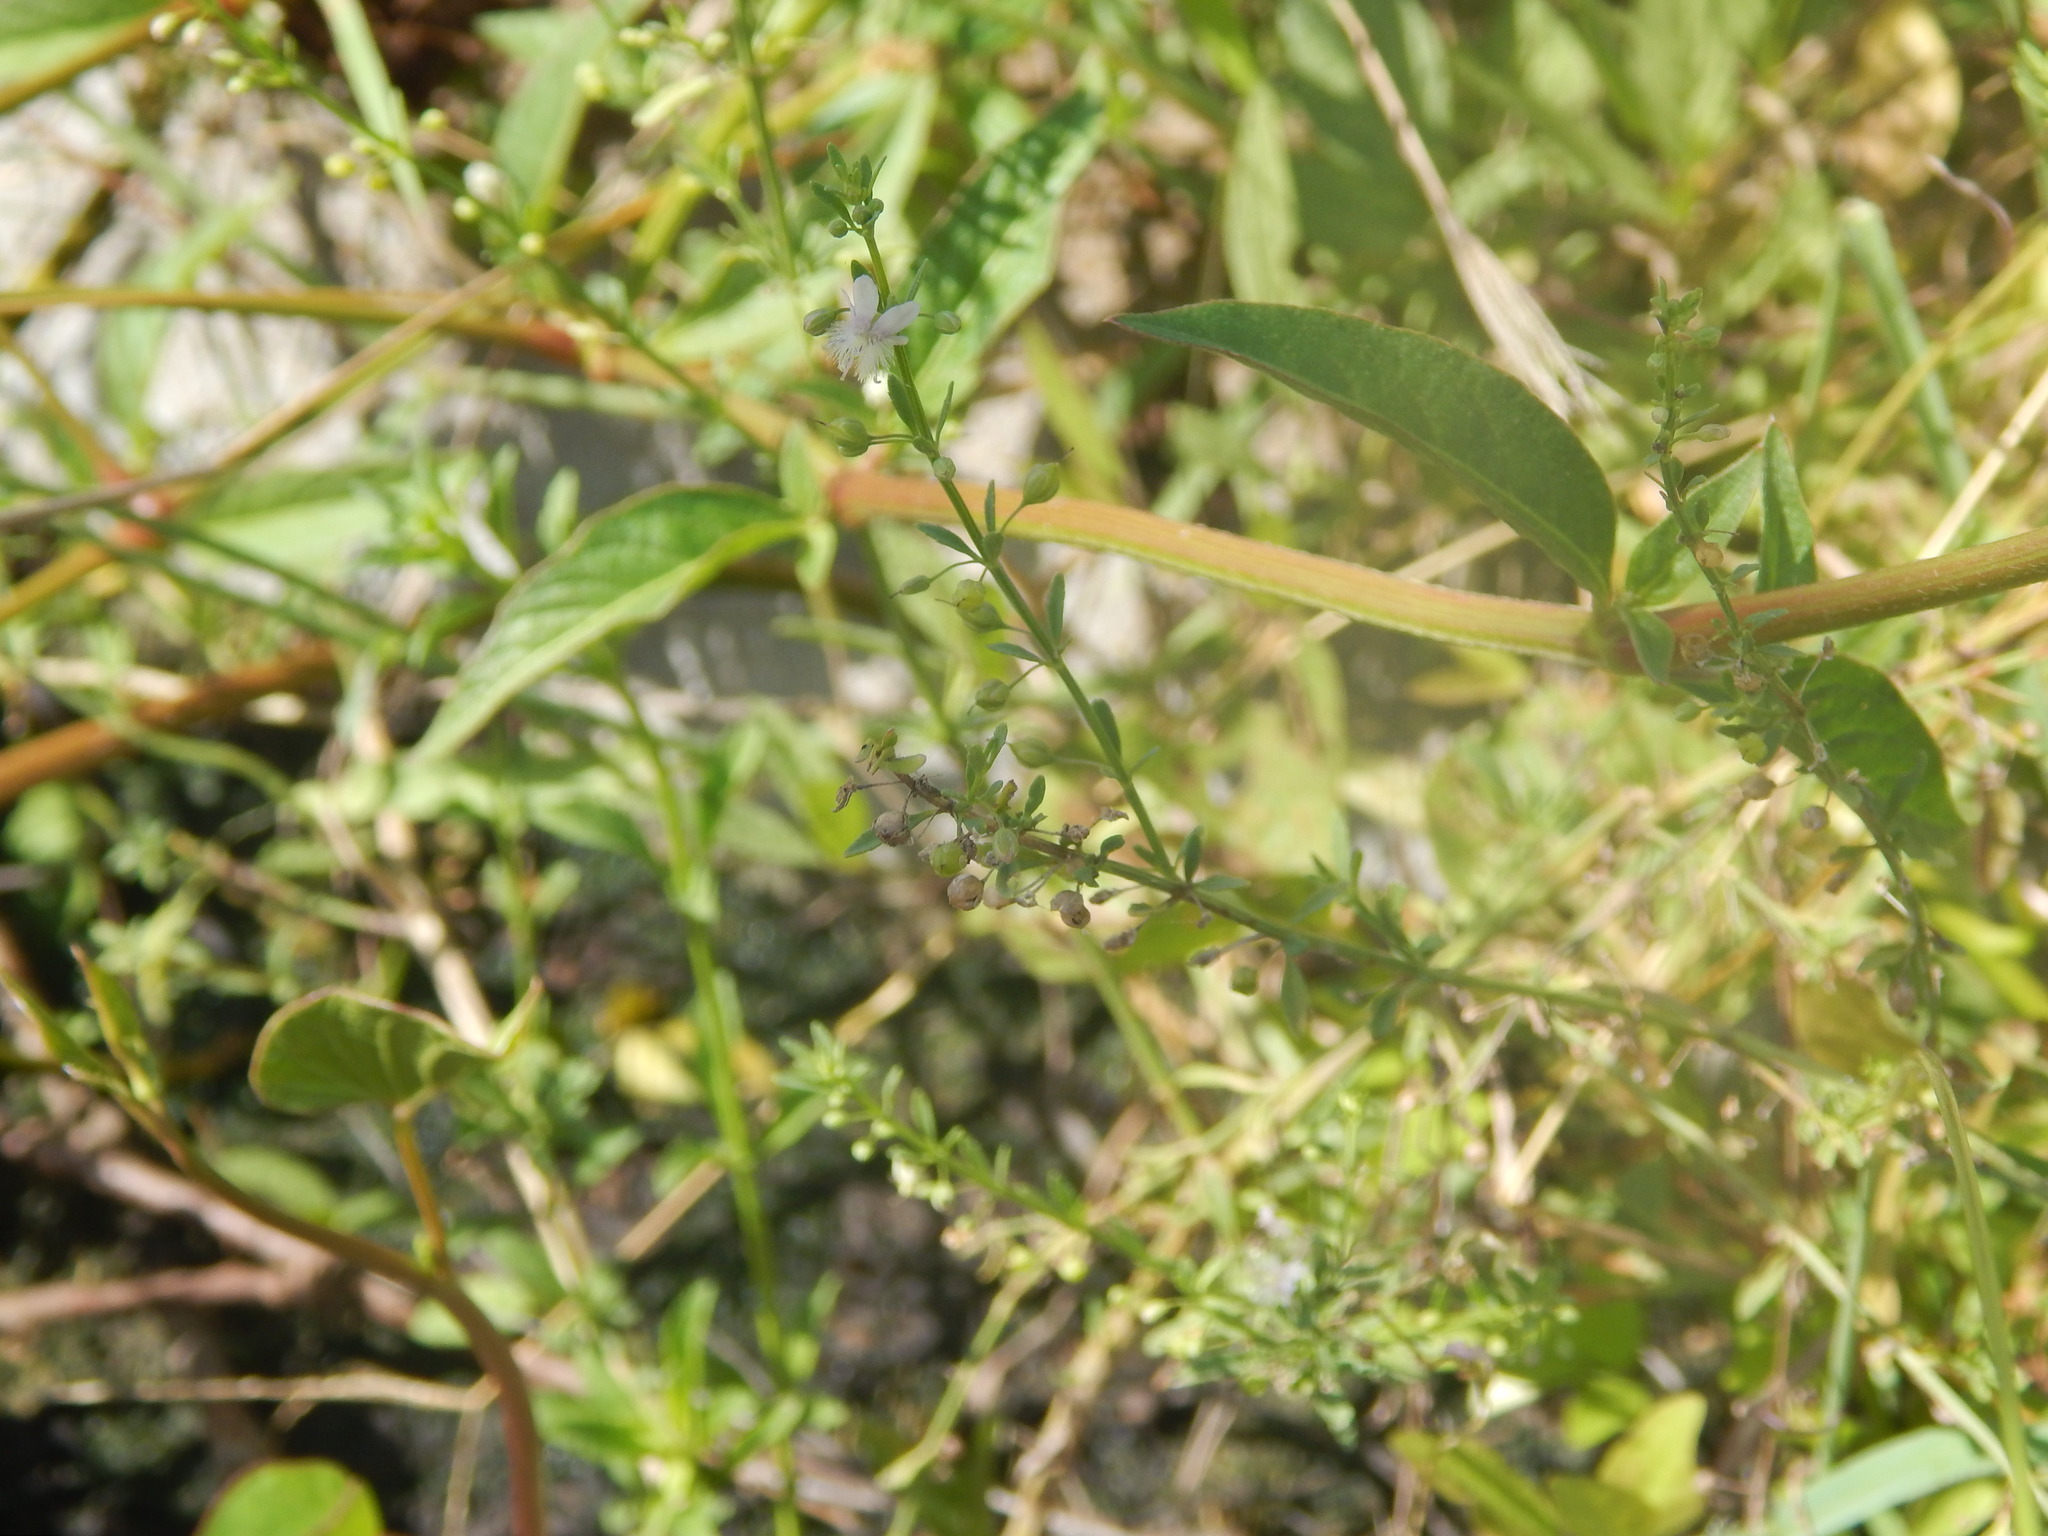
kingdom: Plantae
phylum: Tracheophyta
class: Magnoliopsida
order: Lamiales
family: Plantaginaceae
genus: Scoparia
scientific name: Scoparia dulcis
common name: Scoparia-weed
